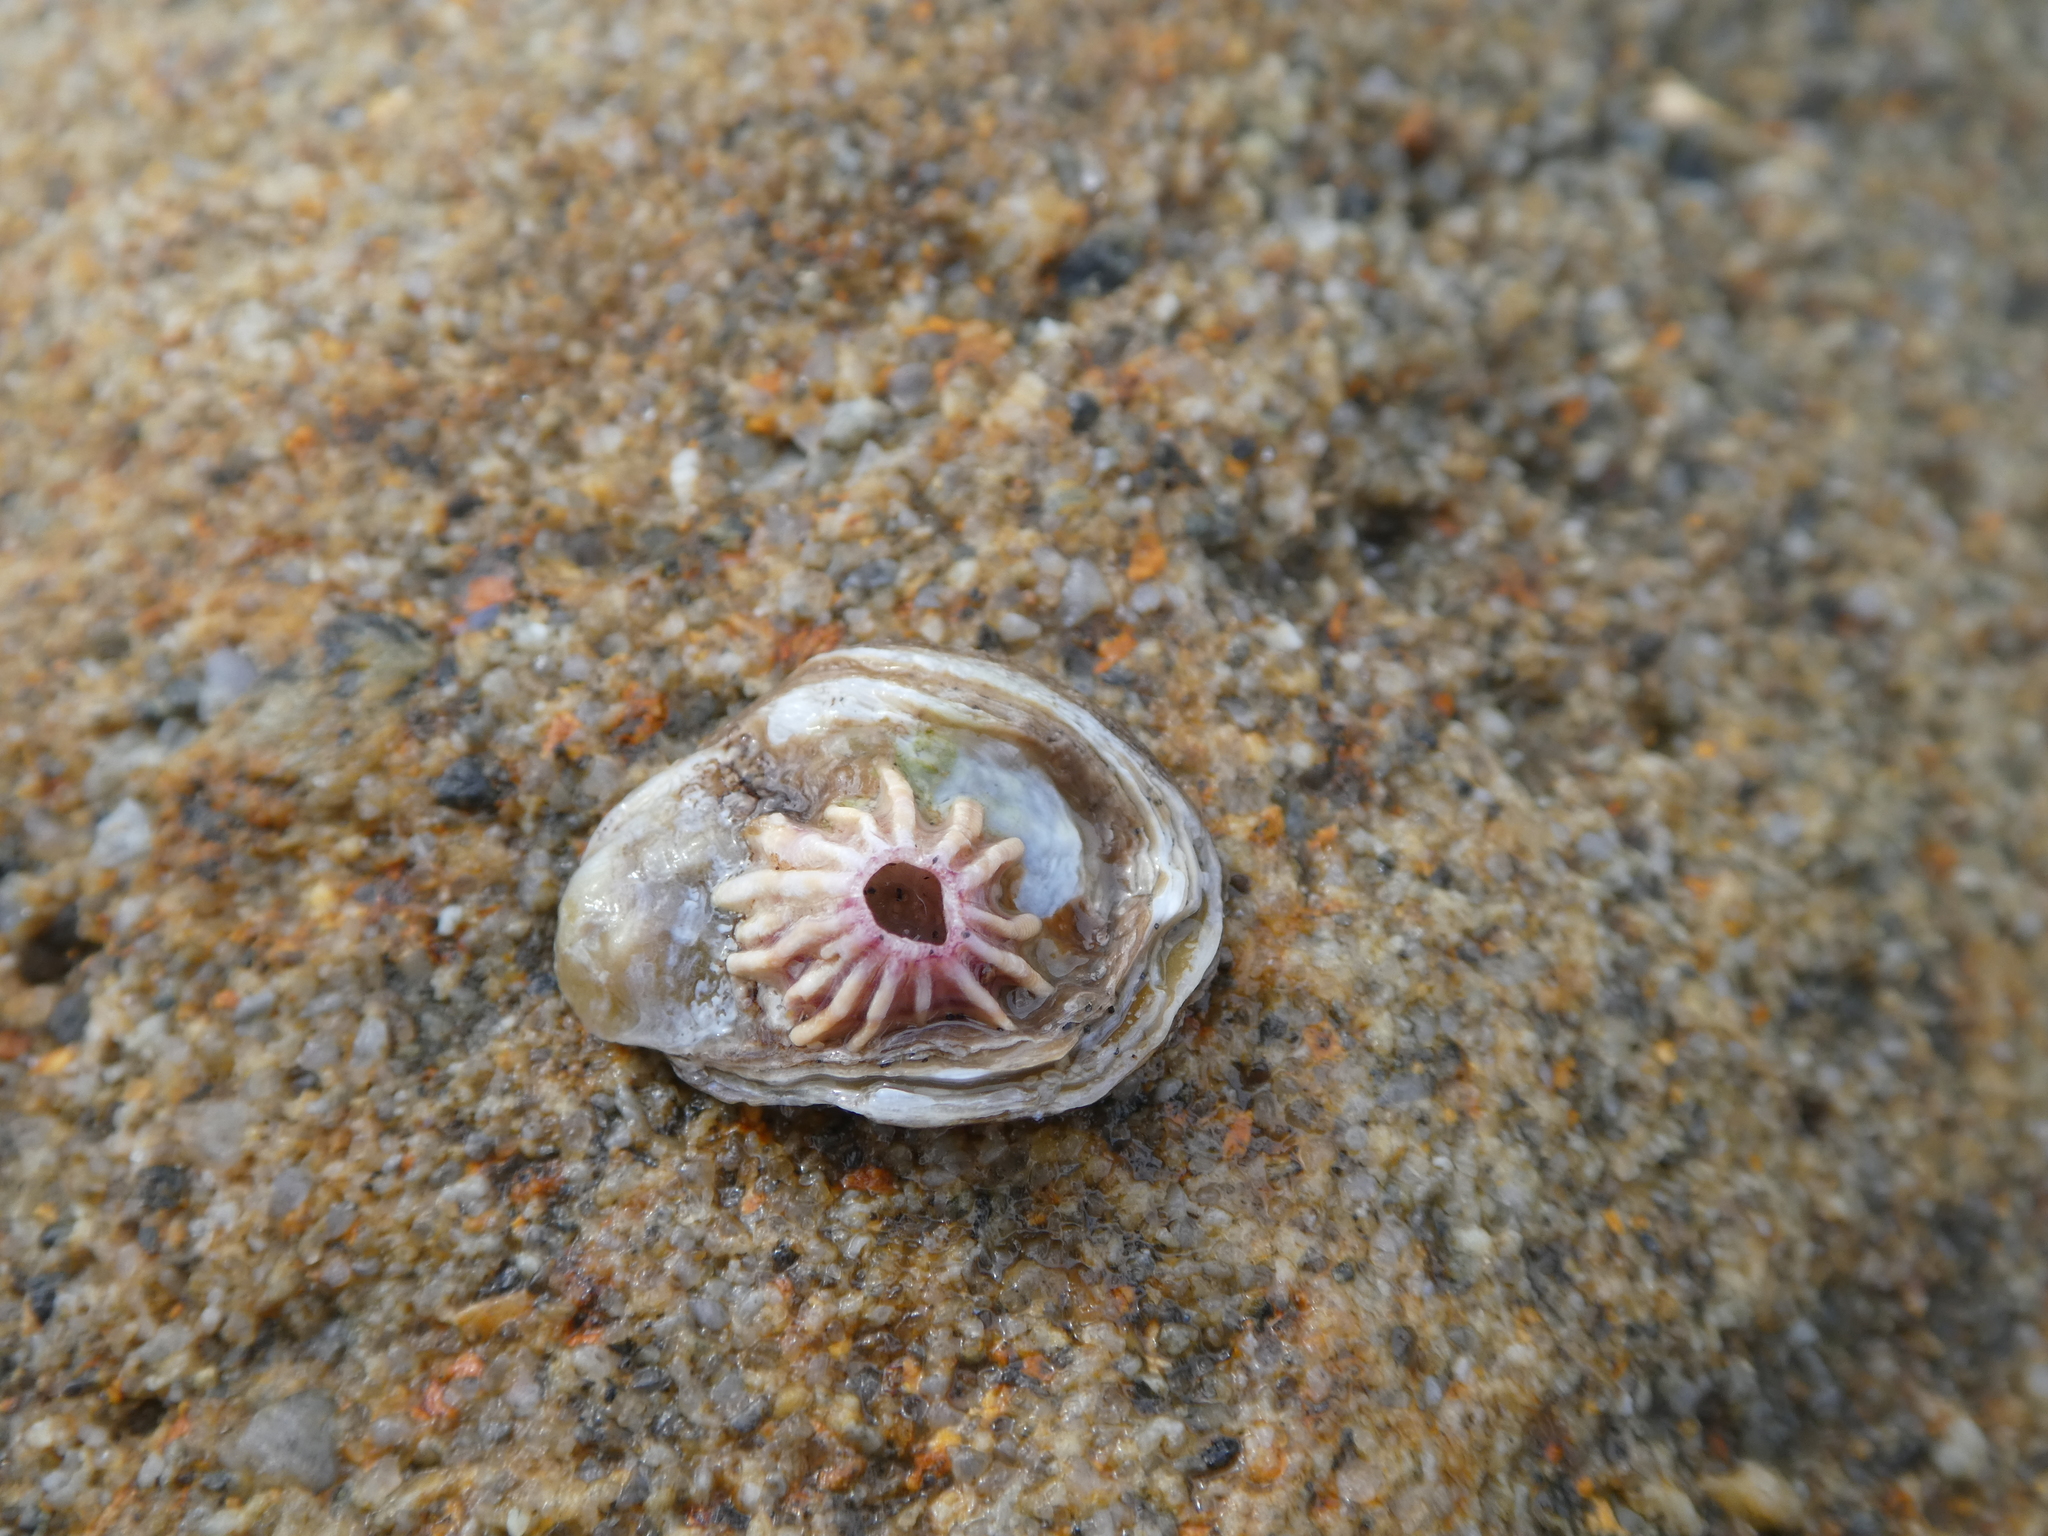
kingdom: Animalia
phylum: Mollusca
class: Bivalvia
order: Ostreida
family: Ostreidae
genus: Ostrea
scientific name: Ostrea lurida
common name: Olympia flat oyster
